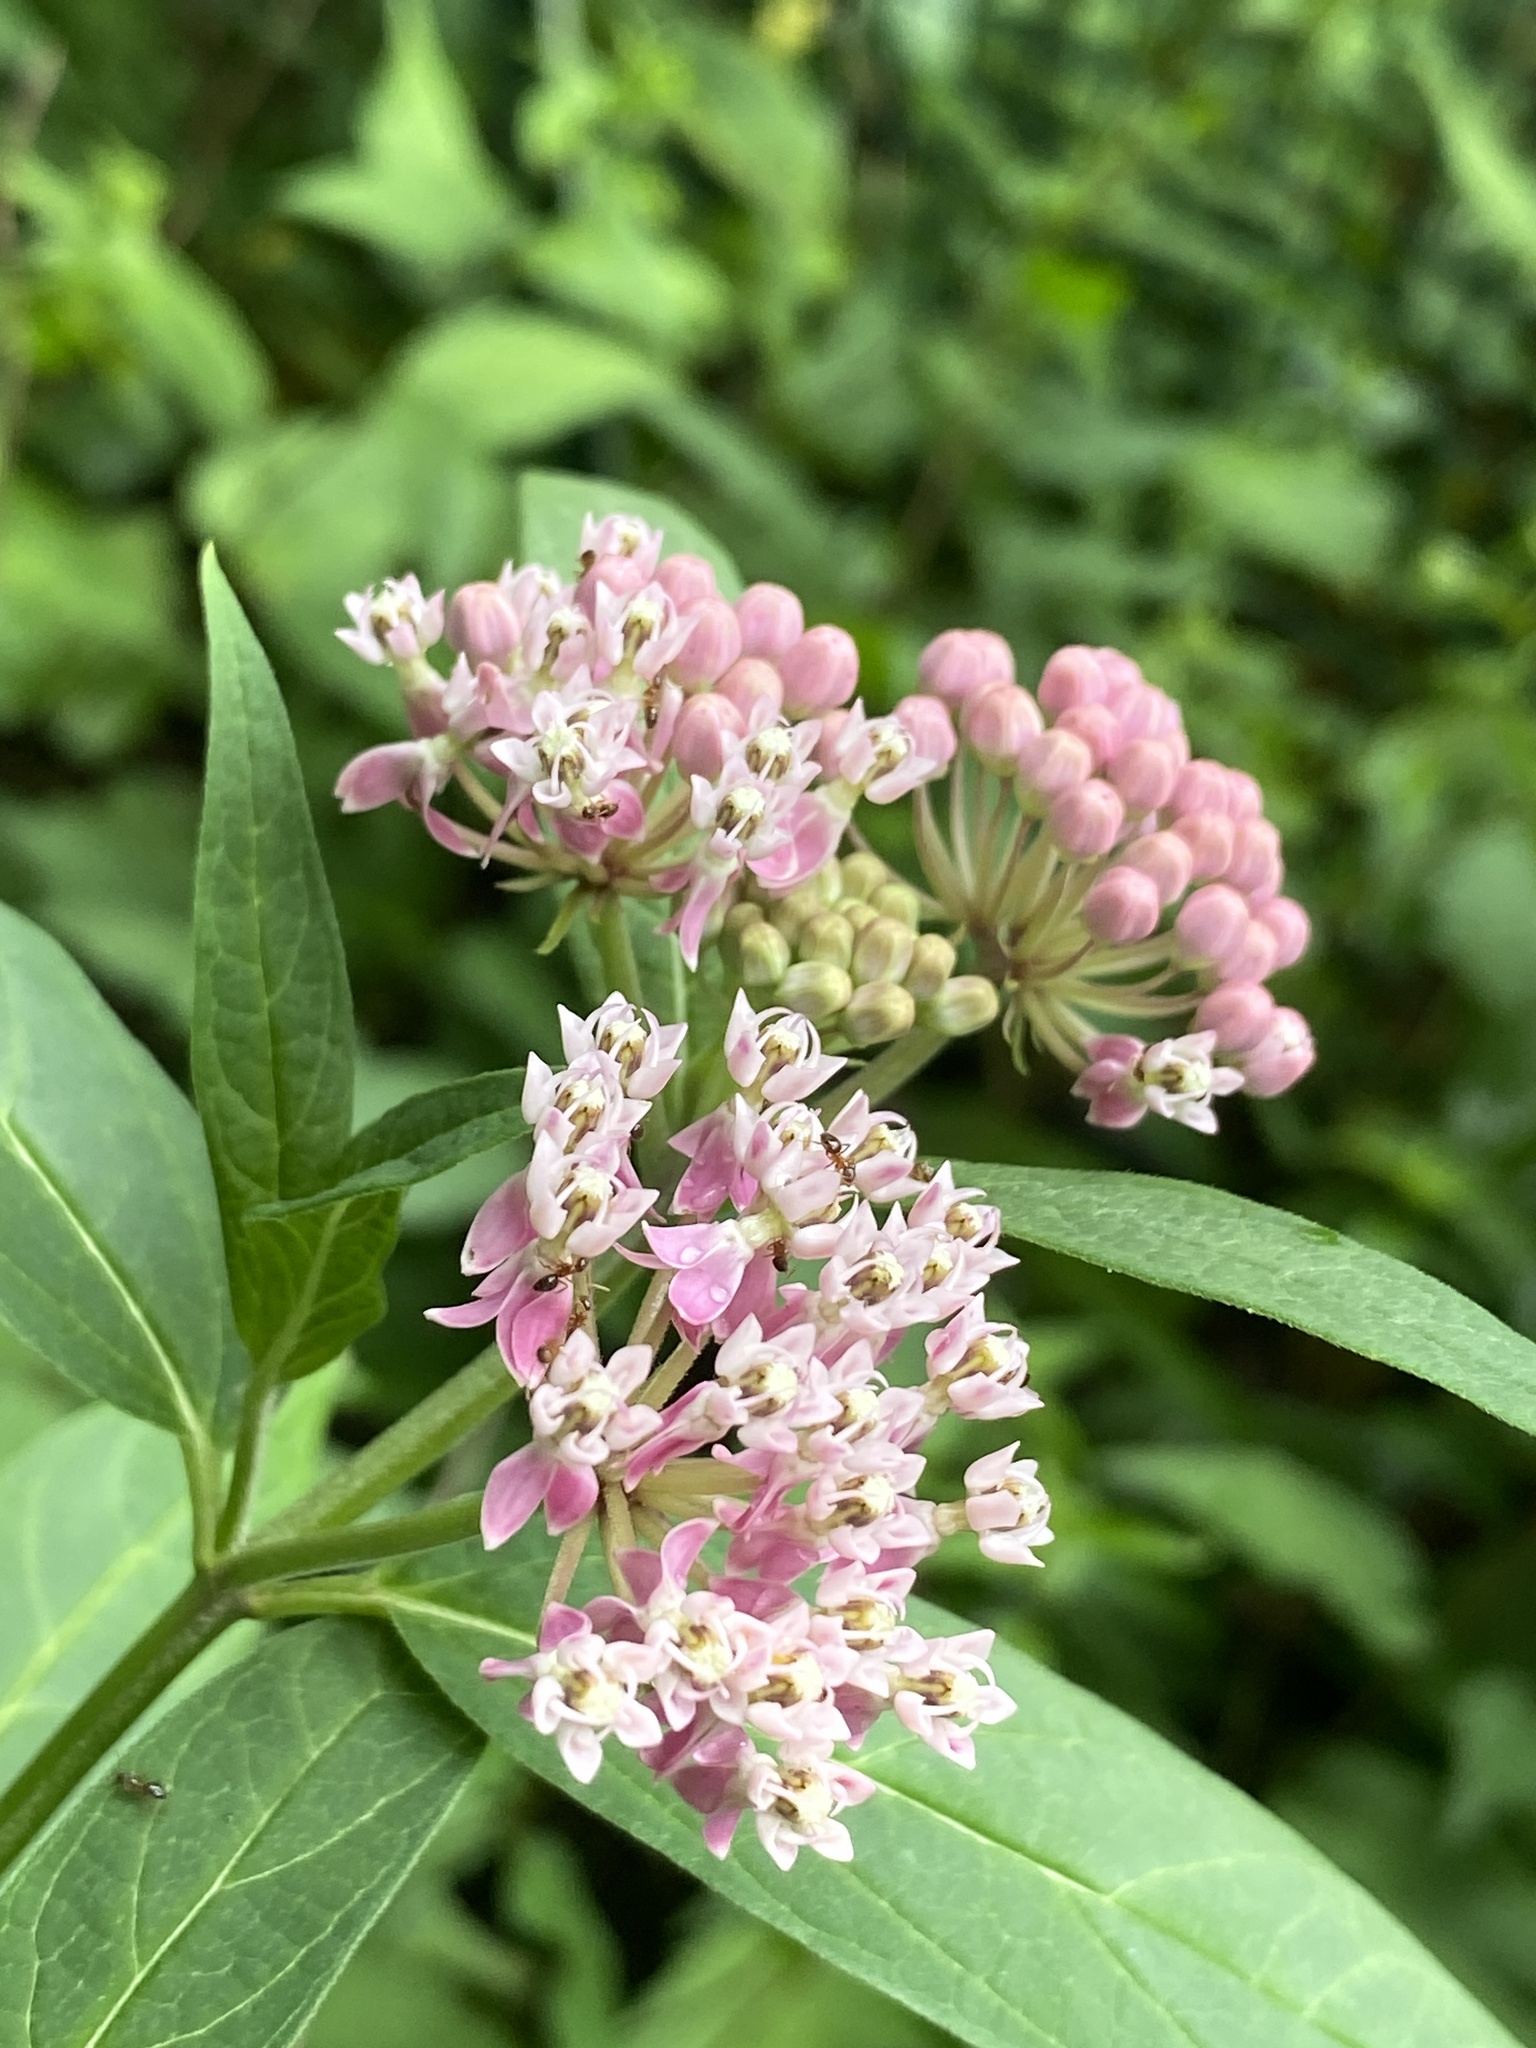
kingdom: Plantae
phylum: Tracheophyta
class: Magnoliopsida
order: Gentianales
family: Apocynaceae
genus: Asclepias
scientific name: Asclepias incarnata
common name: Swamp milkweed
